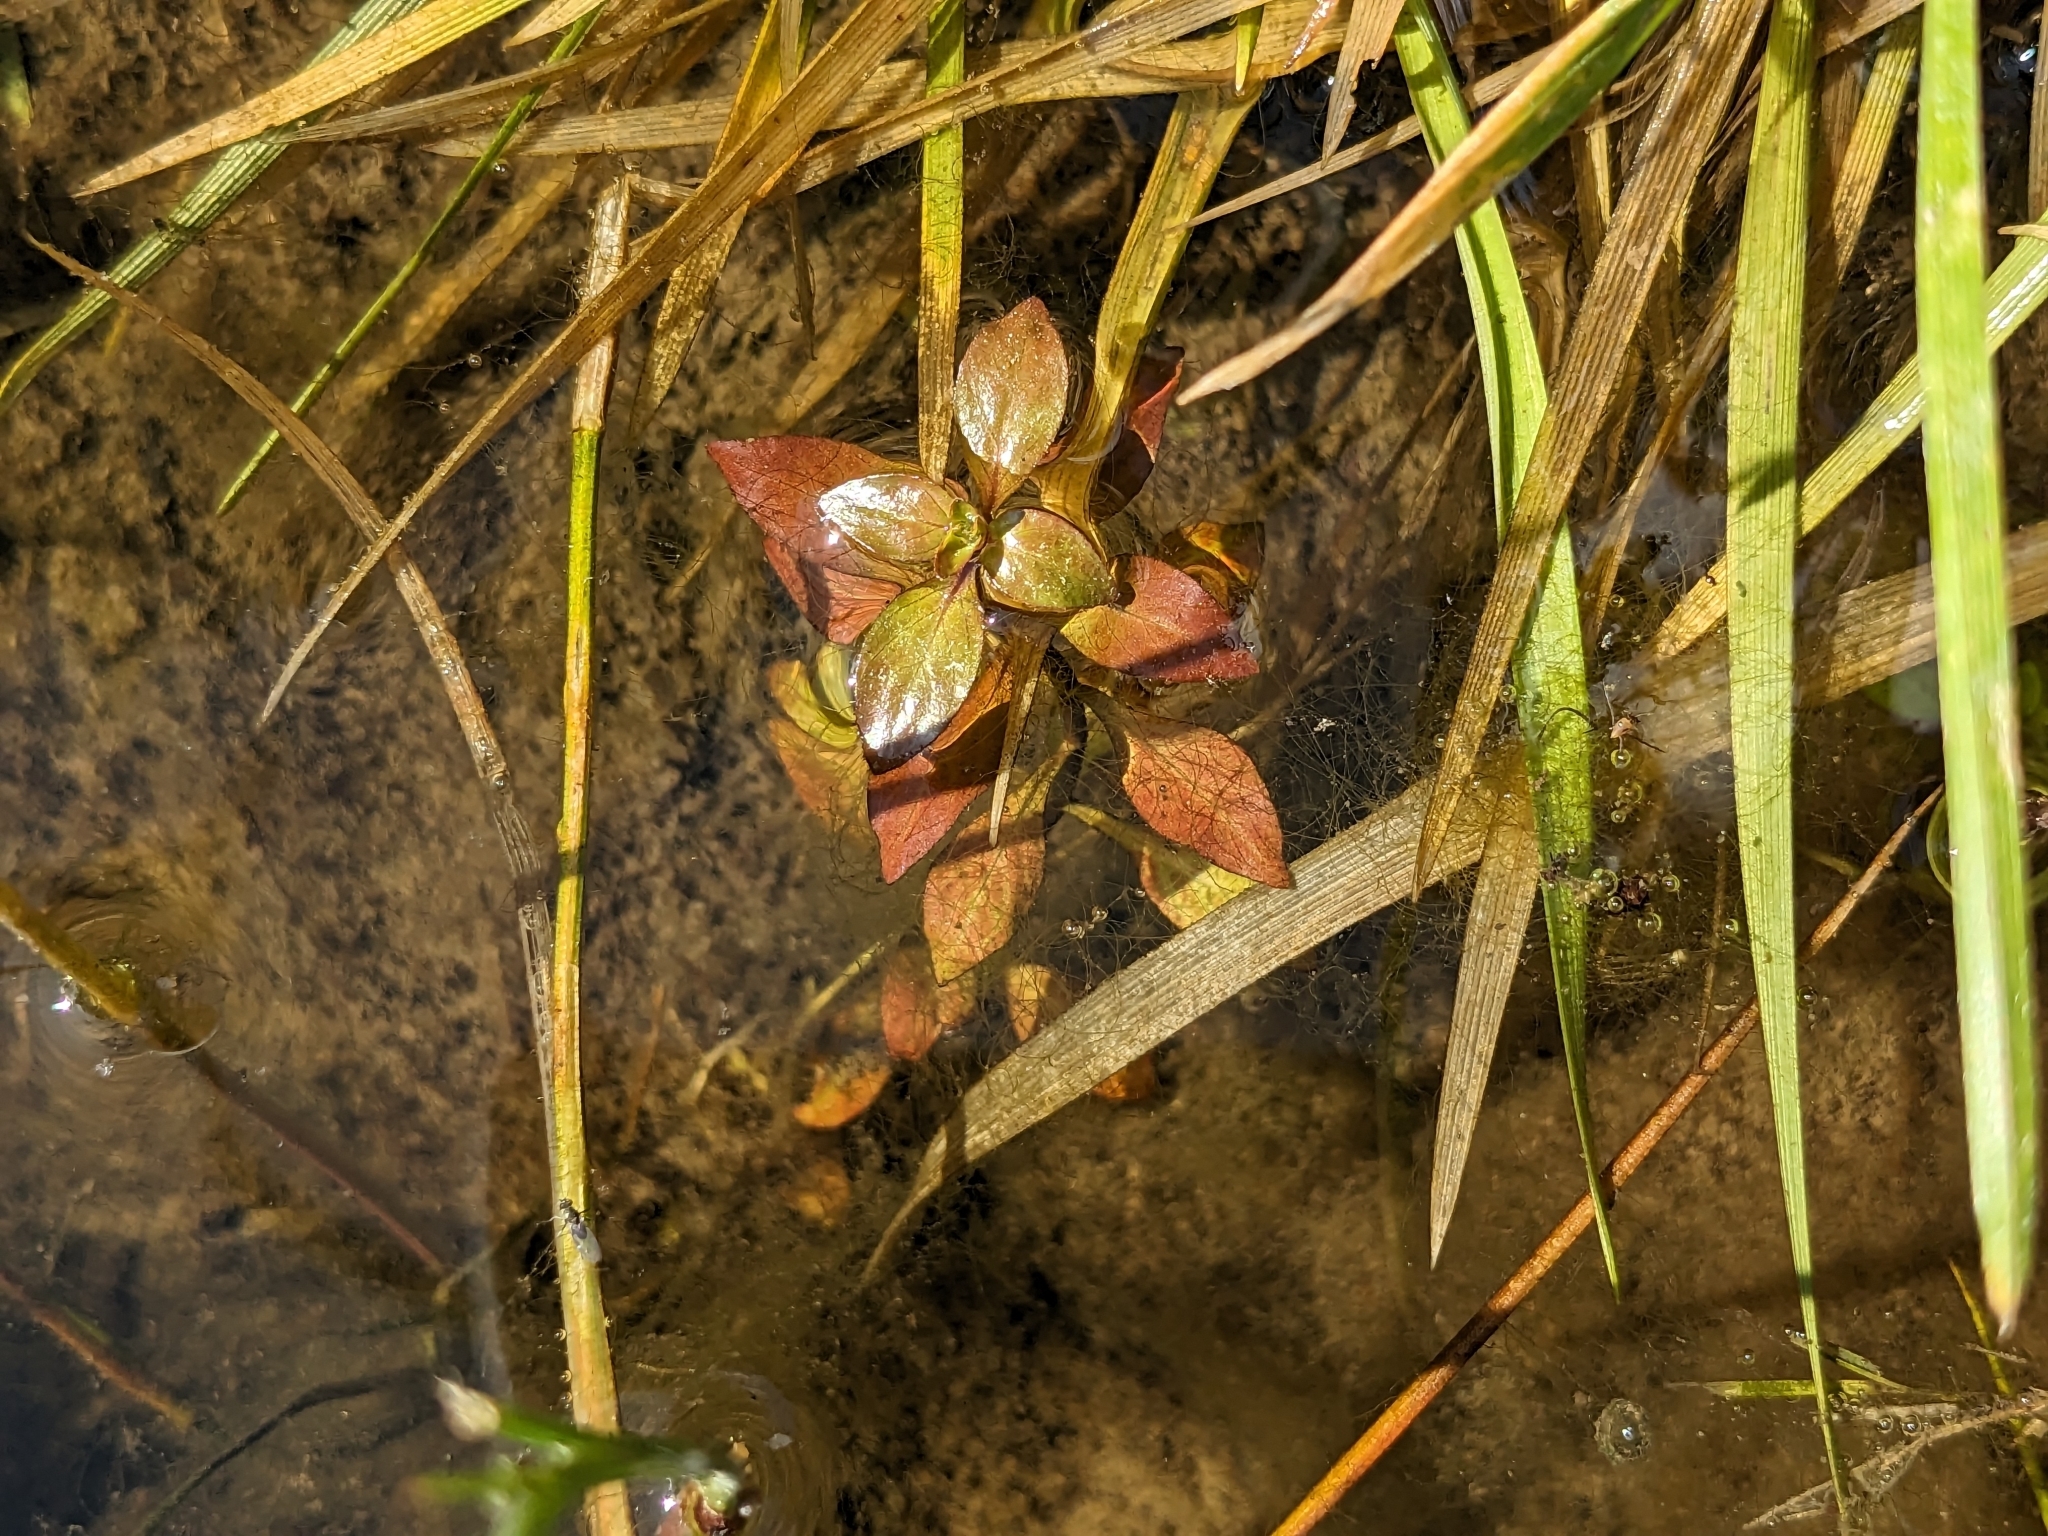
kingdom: Plantae
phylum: Tracheophyta
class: Magnoliopsida
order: Myrtales
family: Onagraceae
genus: Ludwigia
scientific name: Ludwigia palustris
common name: Hampshire-purslane
